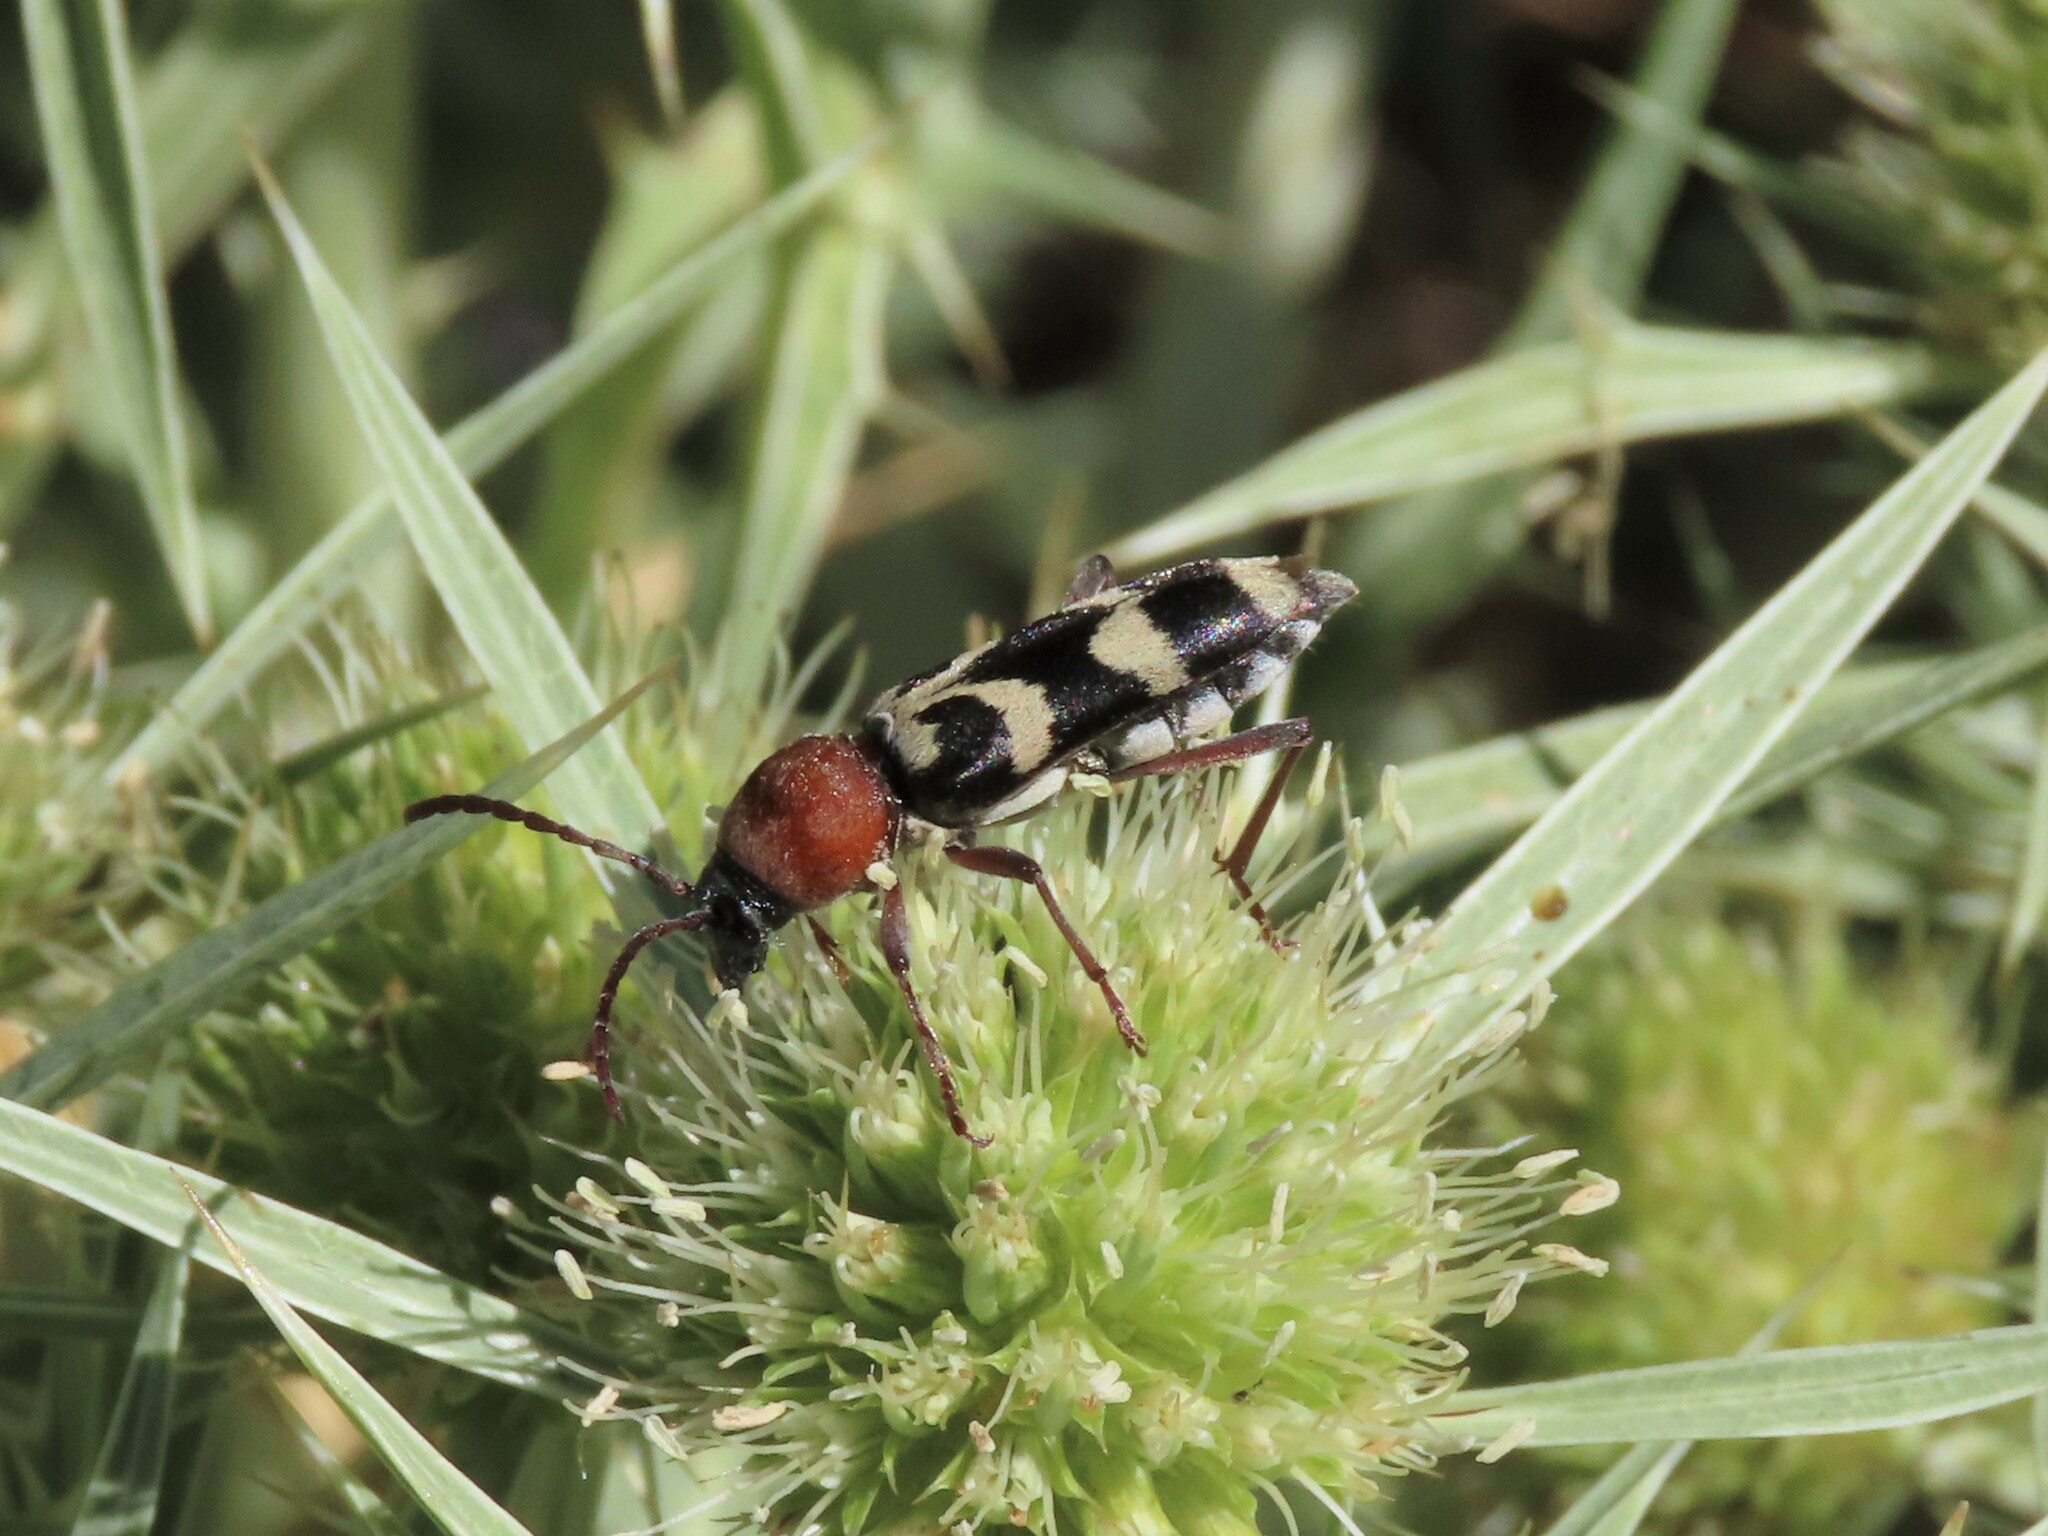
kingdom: Animalia
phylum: Arthropoda
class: Insecta
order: Coleoptera
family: Cerambycidae
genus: Chlorophorus
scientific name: Chlorophorus trifasciatus
